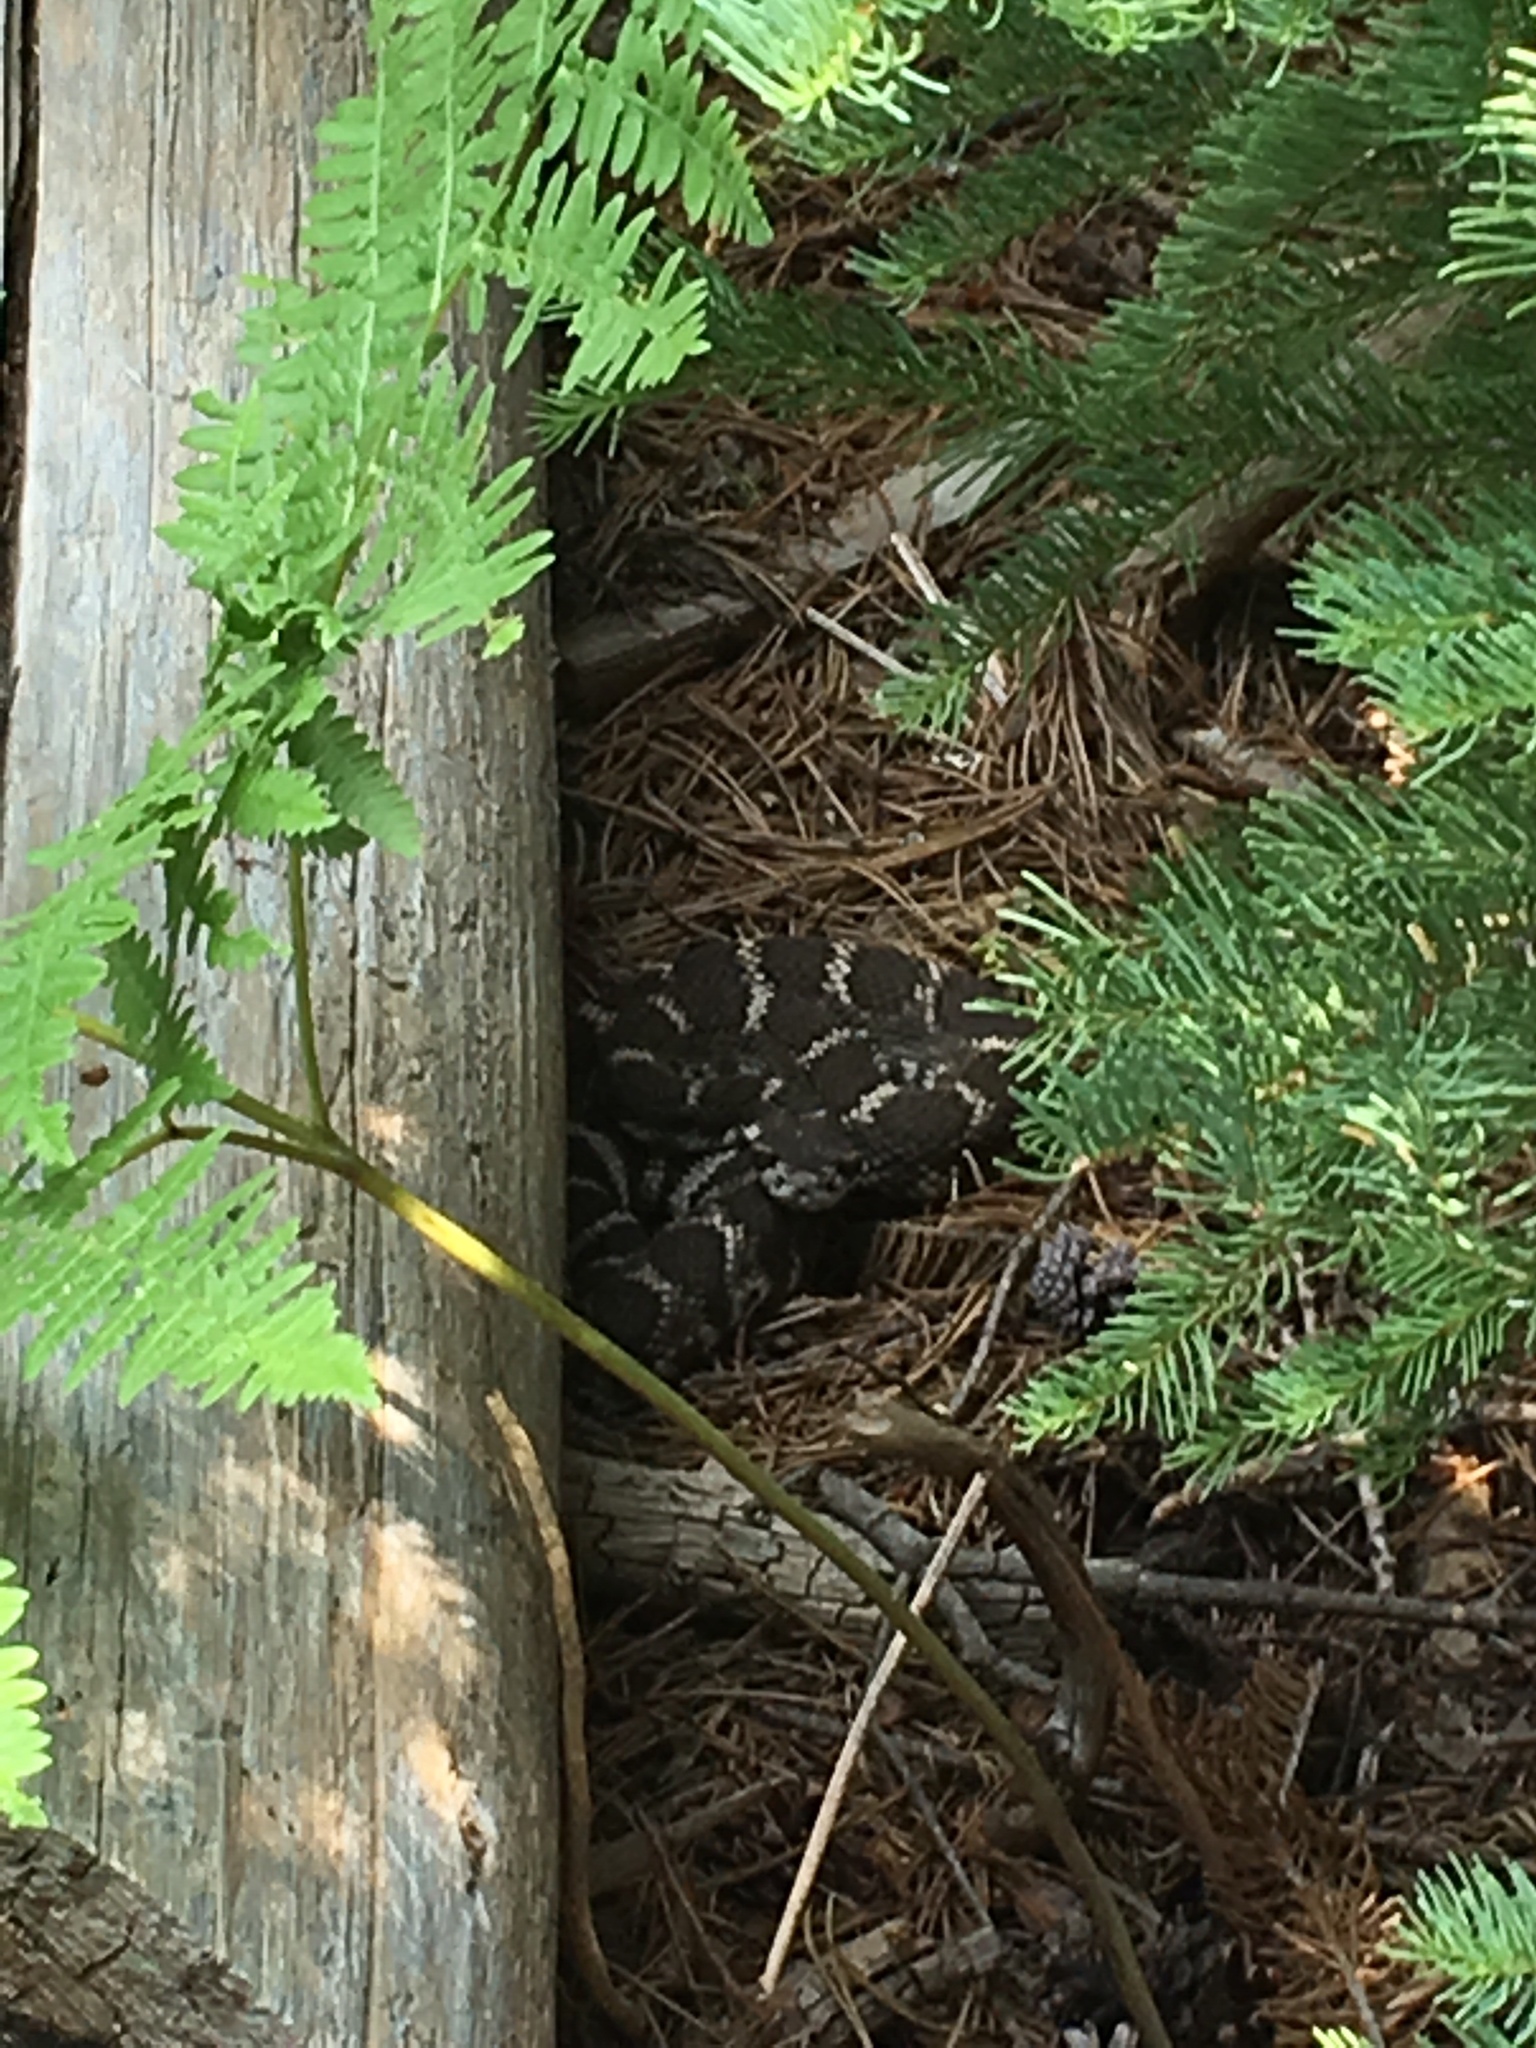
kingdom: Animalia
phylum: Chordata
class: Squamata
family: Viperidae
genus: Crotalus
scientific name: Crotalus oreganus
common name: Abyssus
